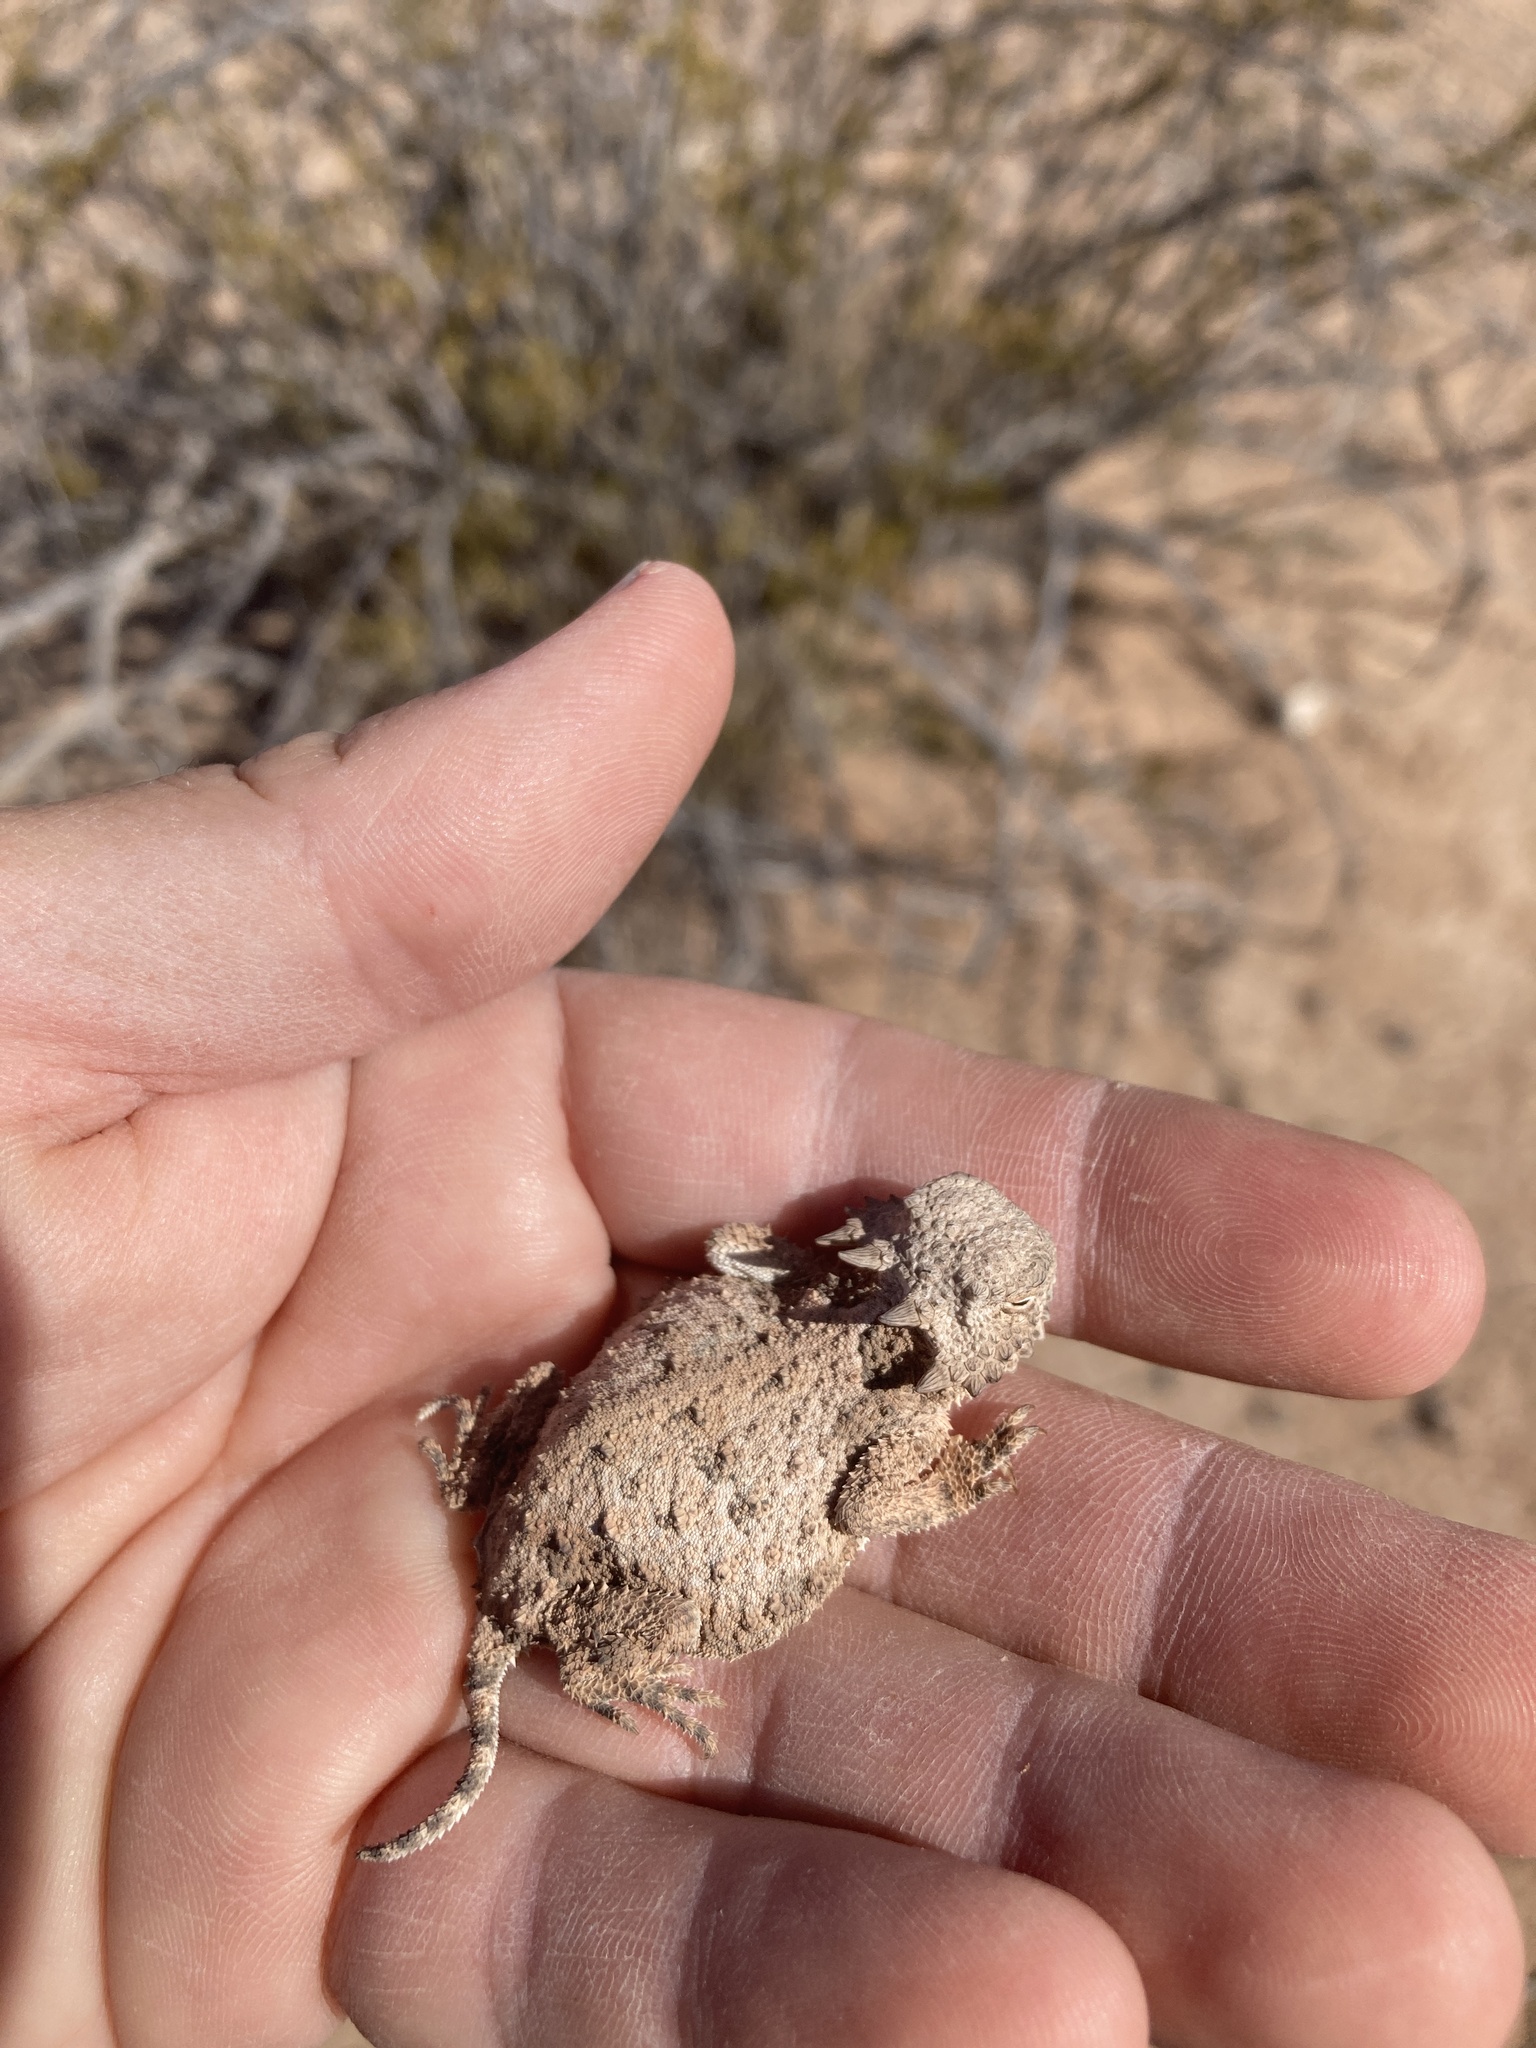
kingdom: Animalia
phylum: Chordata
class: Squamata
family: Phrynosomatidae
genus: Phrynosoma
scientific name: Phrynosoma modestum
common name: Roundtail horned lizard
